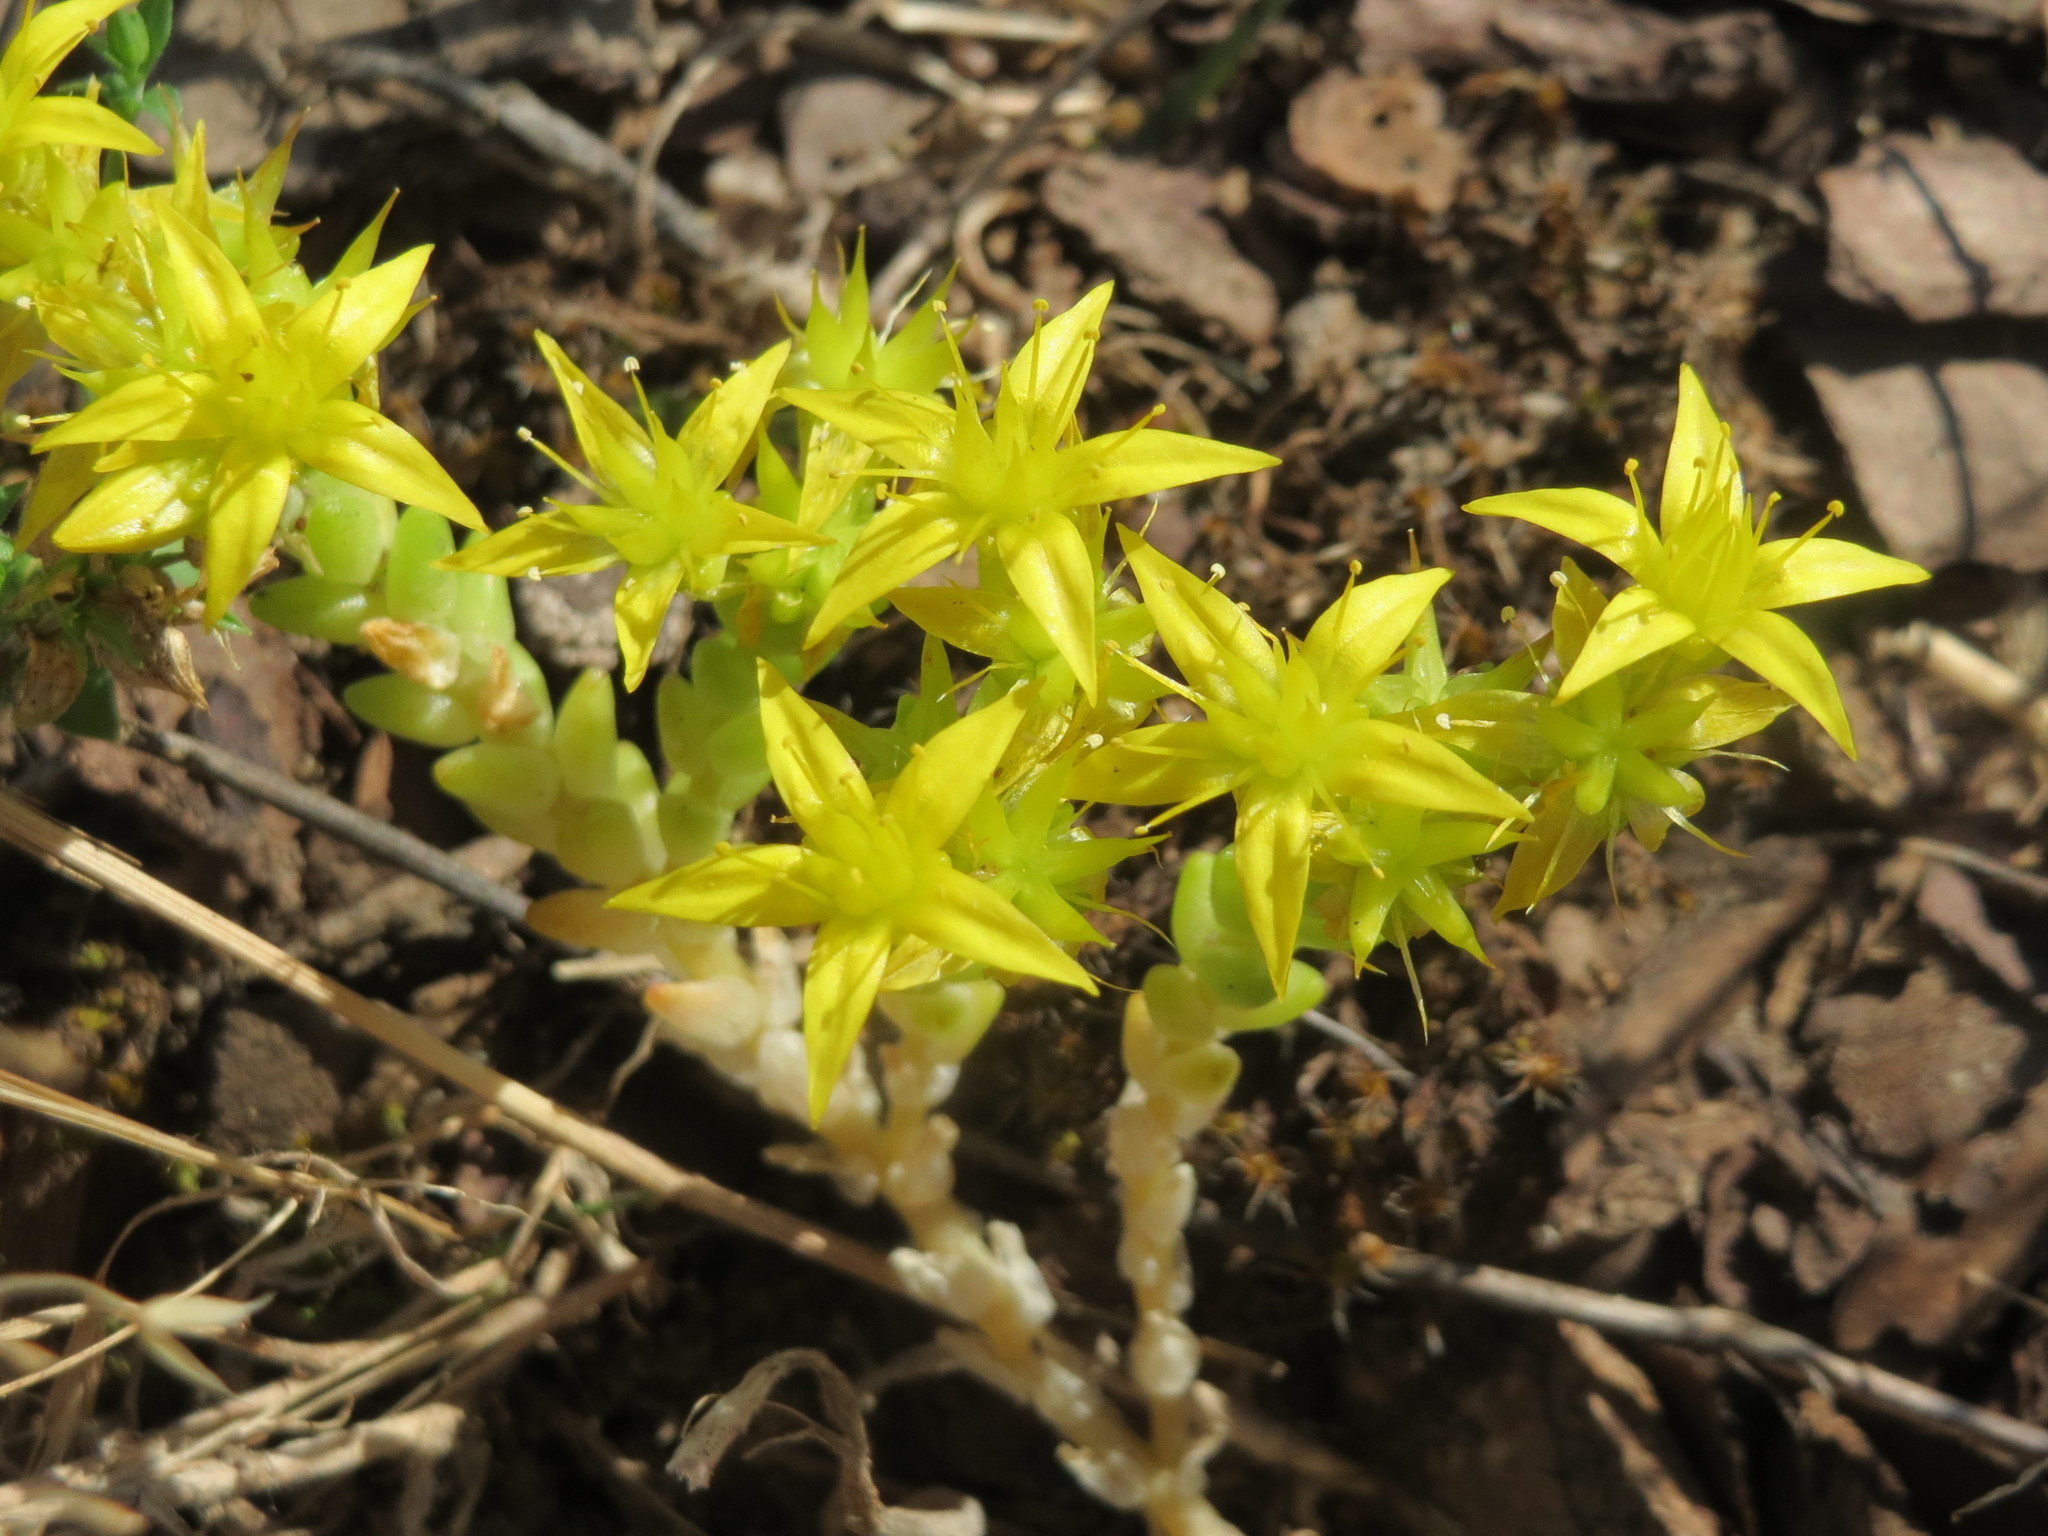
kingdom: Plantae
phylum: Tracheophyta
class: Magnoliopsida
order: Saxifragales
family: Crassulaceae
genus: Sedum
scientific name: Sedum acre
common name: Biting stonecrop
